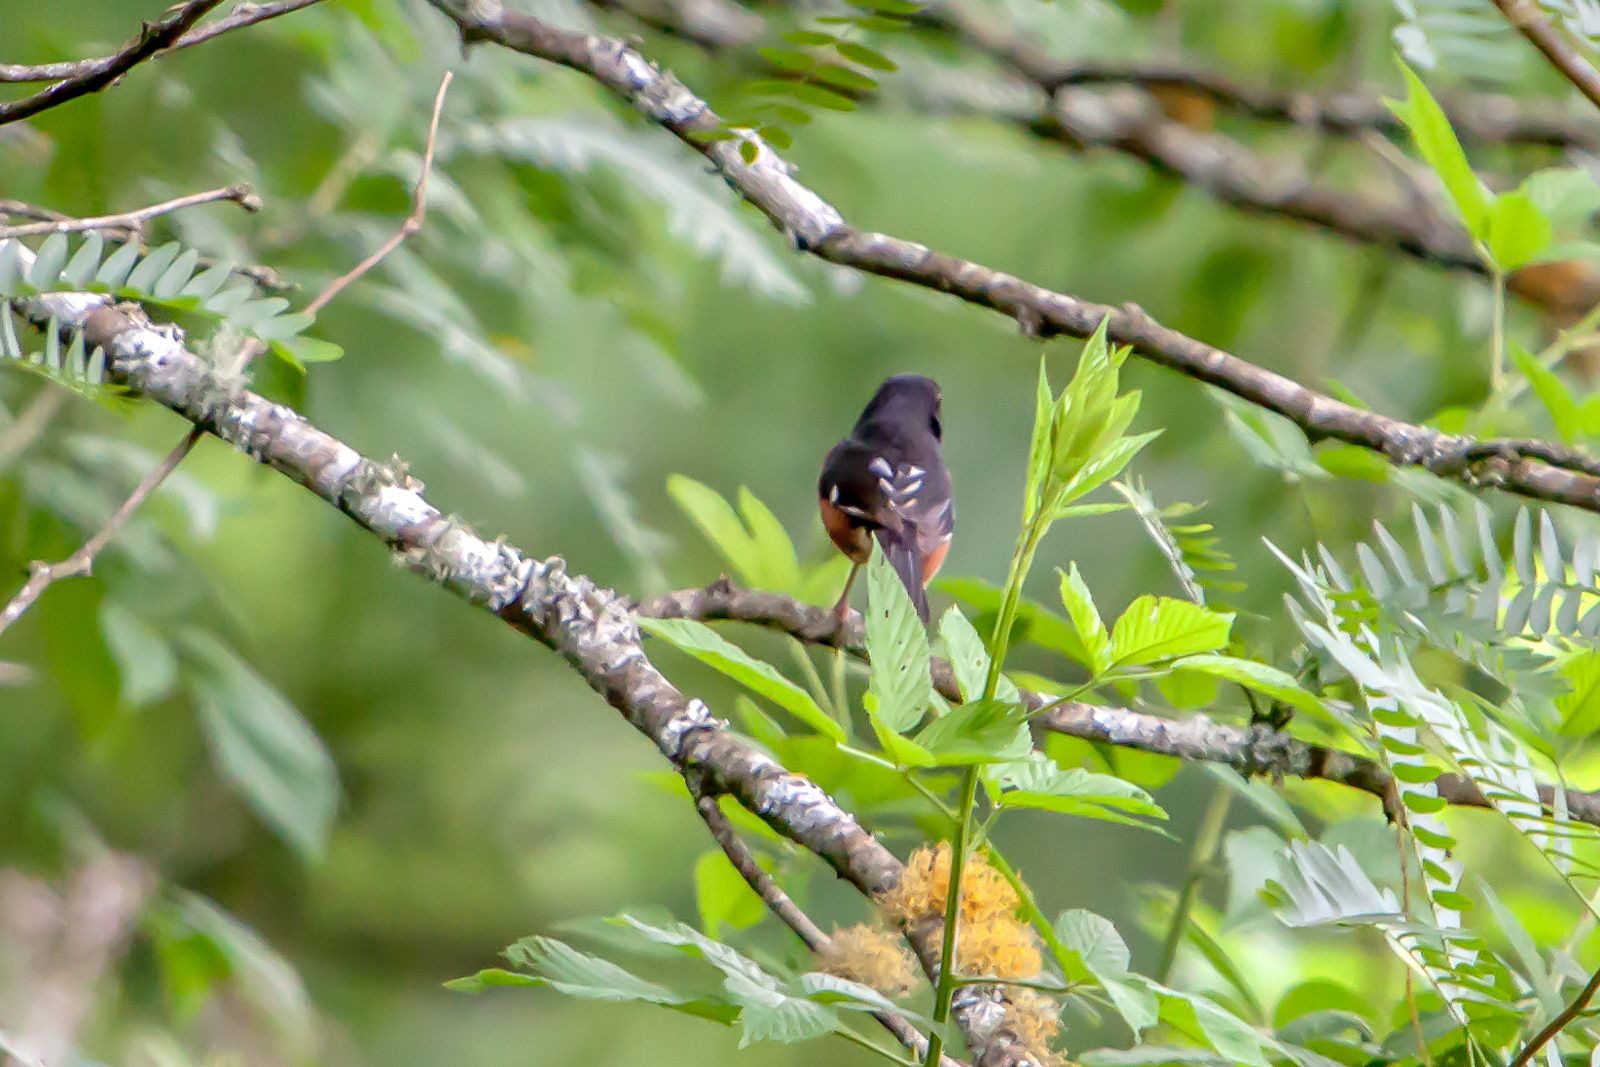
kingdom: Animalia
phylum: Chordata
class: Aves
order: Passeriformes
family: Passerellidae
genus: Pipilo
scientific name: Pipilo erythrophthalmus
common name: Eastern towhee
